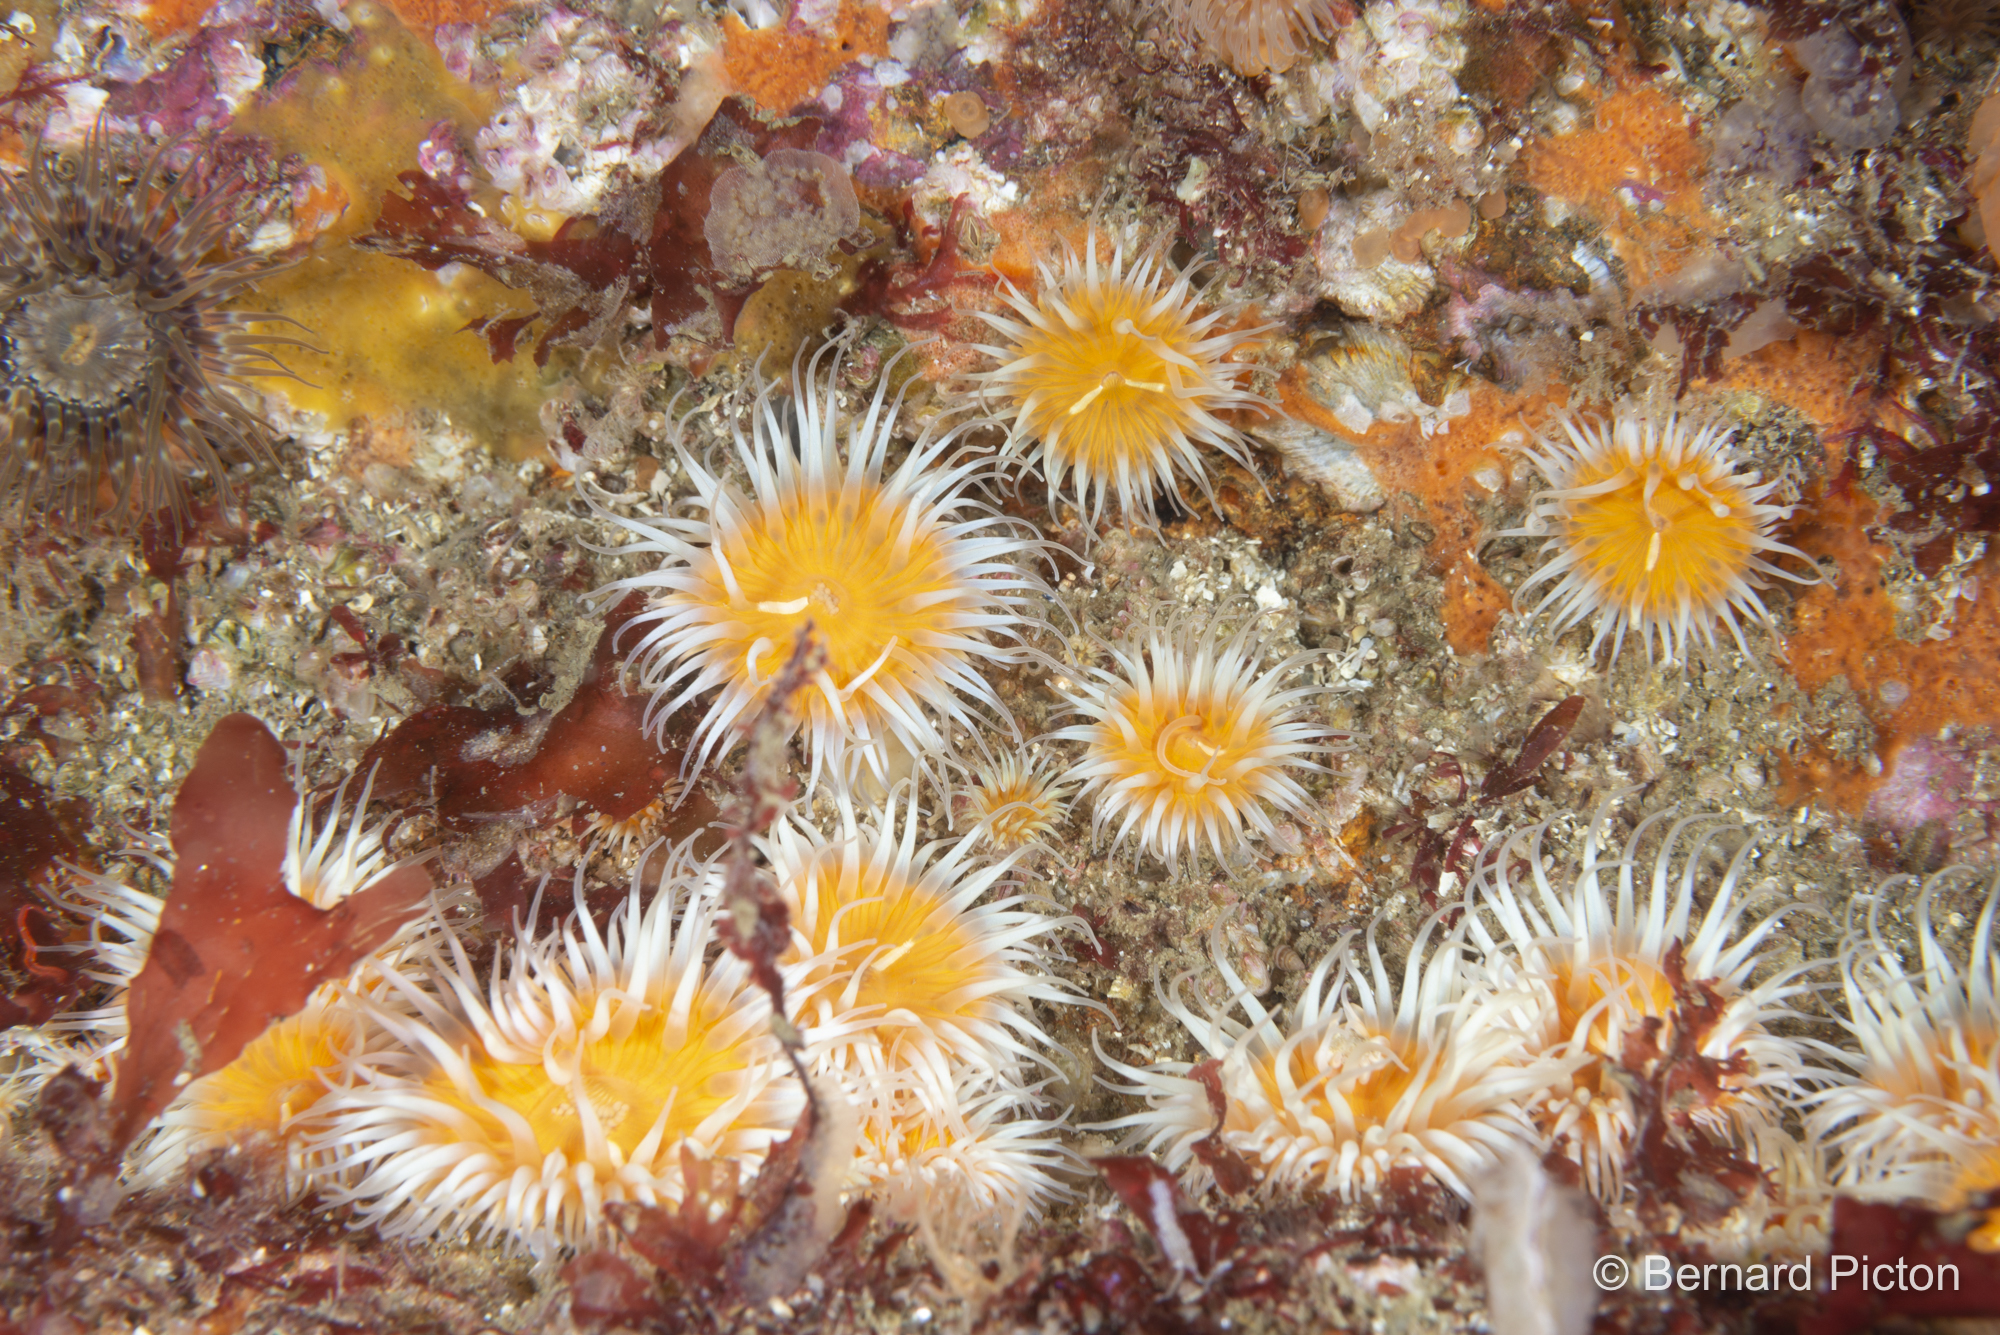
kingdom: Animalia
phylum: Cnidaria
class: Anthozoa
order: Actiniaria
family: Sagartiidae
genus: Cylista
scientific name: Cylista elegans
